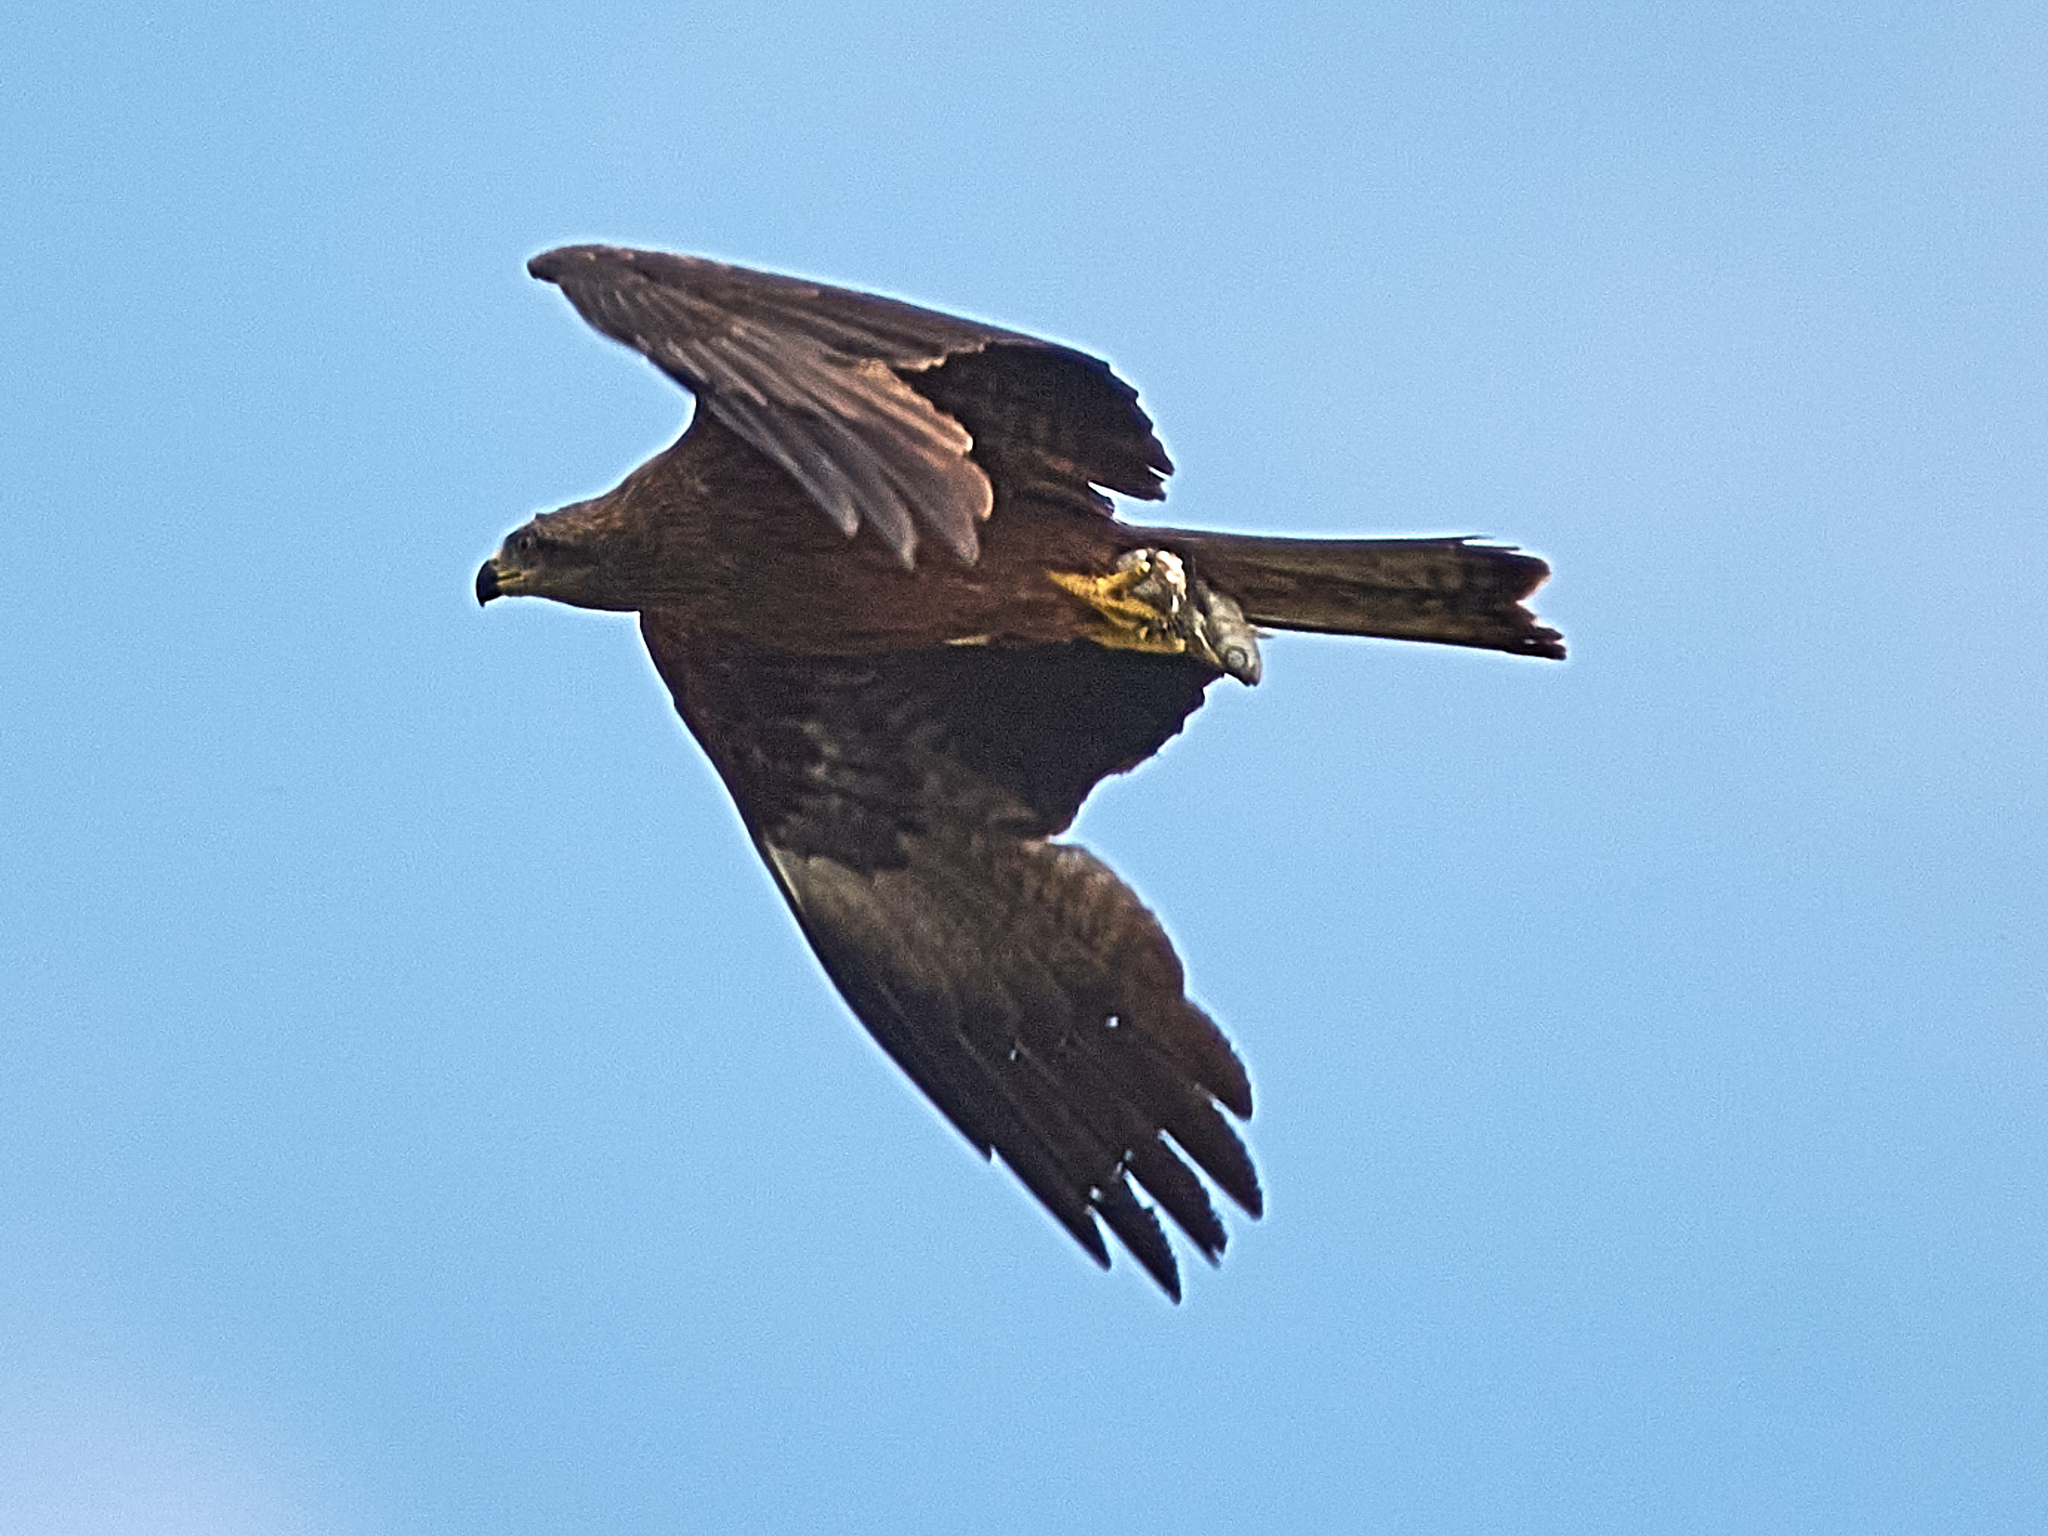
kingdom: Animalia
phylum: Chordata
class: Aves
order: Accipitriformes
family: Accipitridae
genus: Milvus
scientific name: Milvus migrans
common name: Black kite
